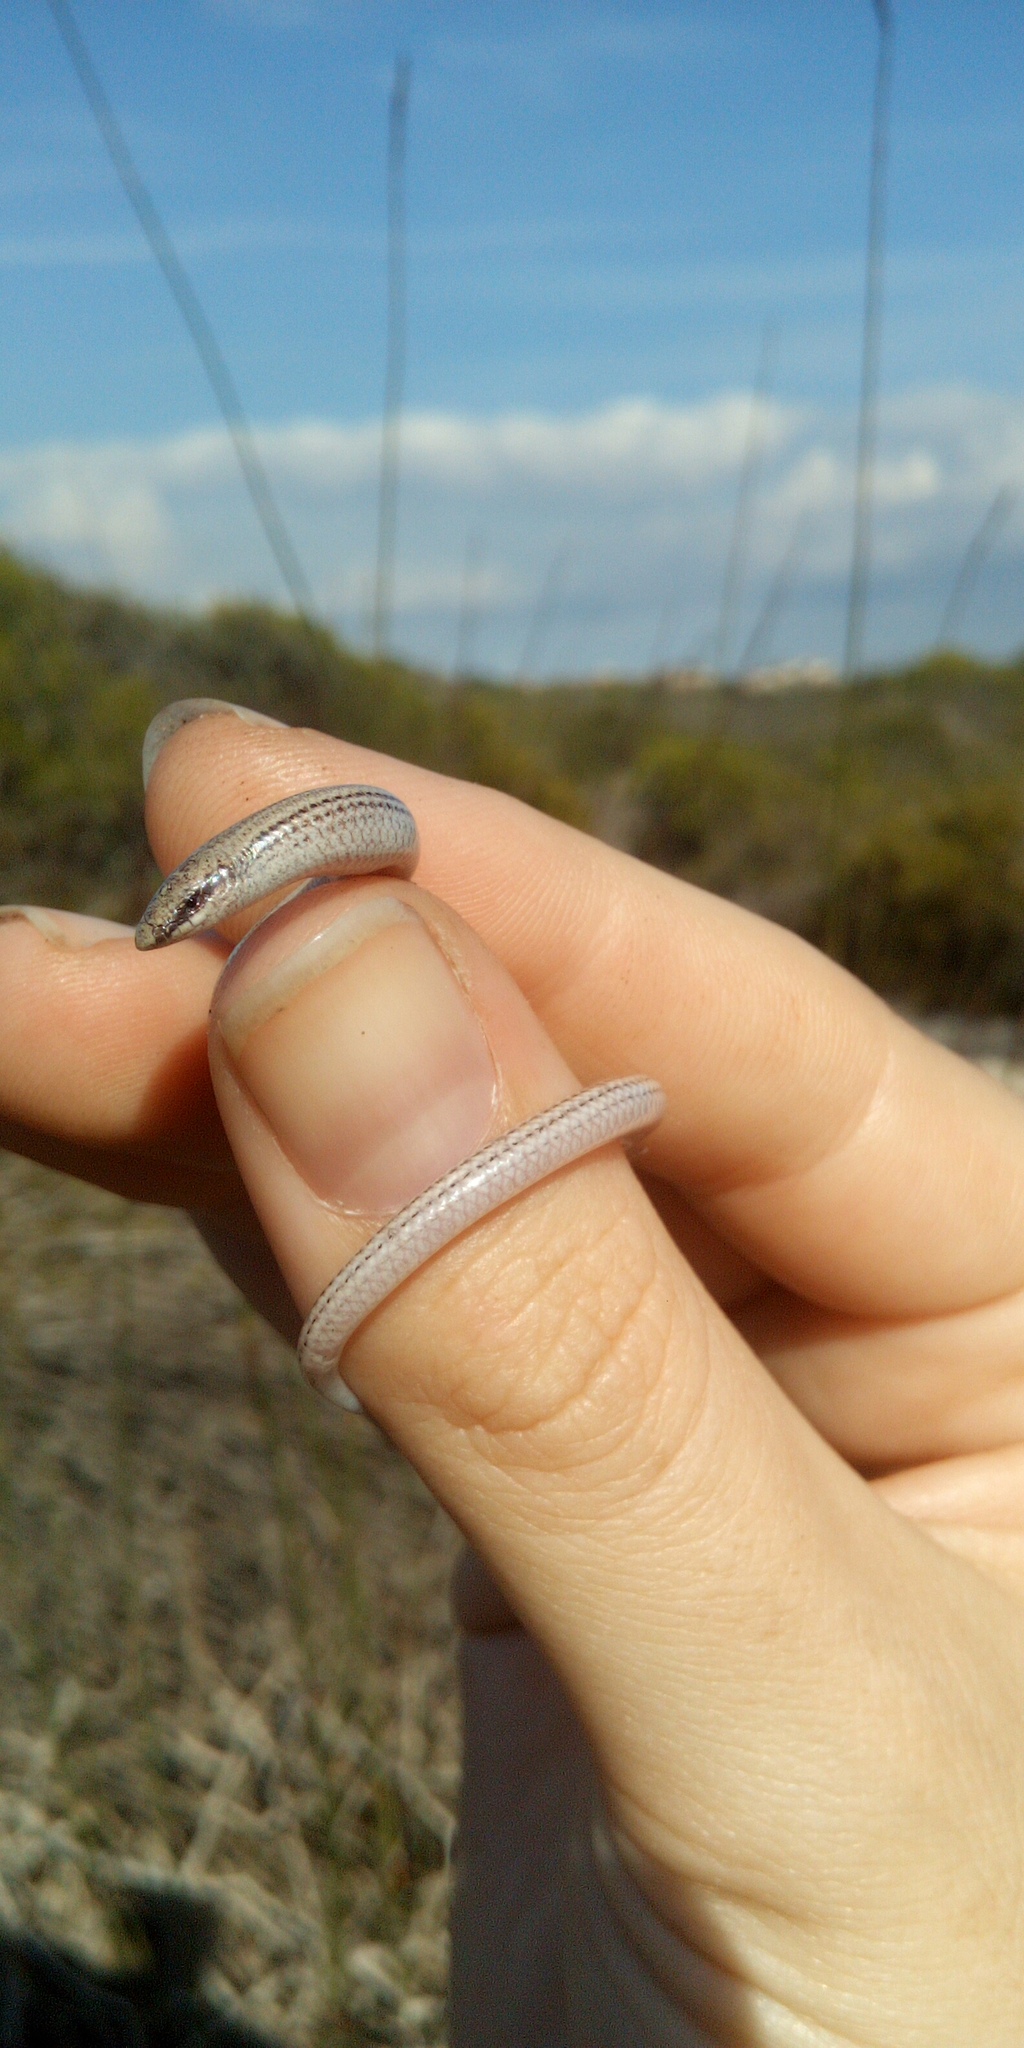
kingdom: Animalia
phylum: Chordata
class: Squamata
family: Scincidae
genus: Scelotes
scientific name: Scelotes bipes
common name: Common burrowing skink
